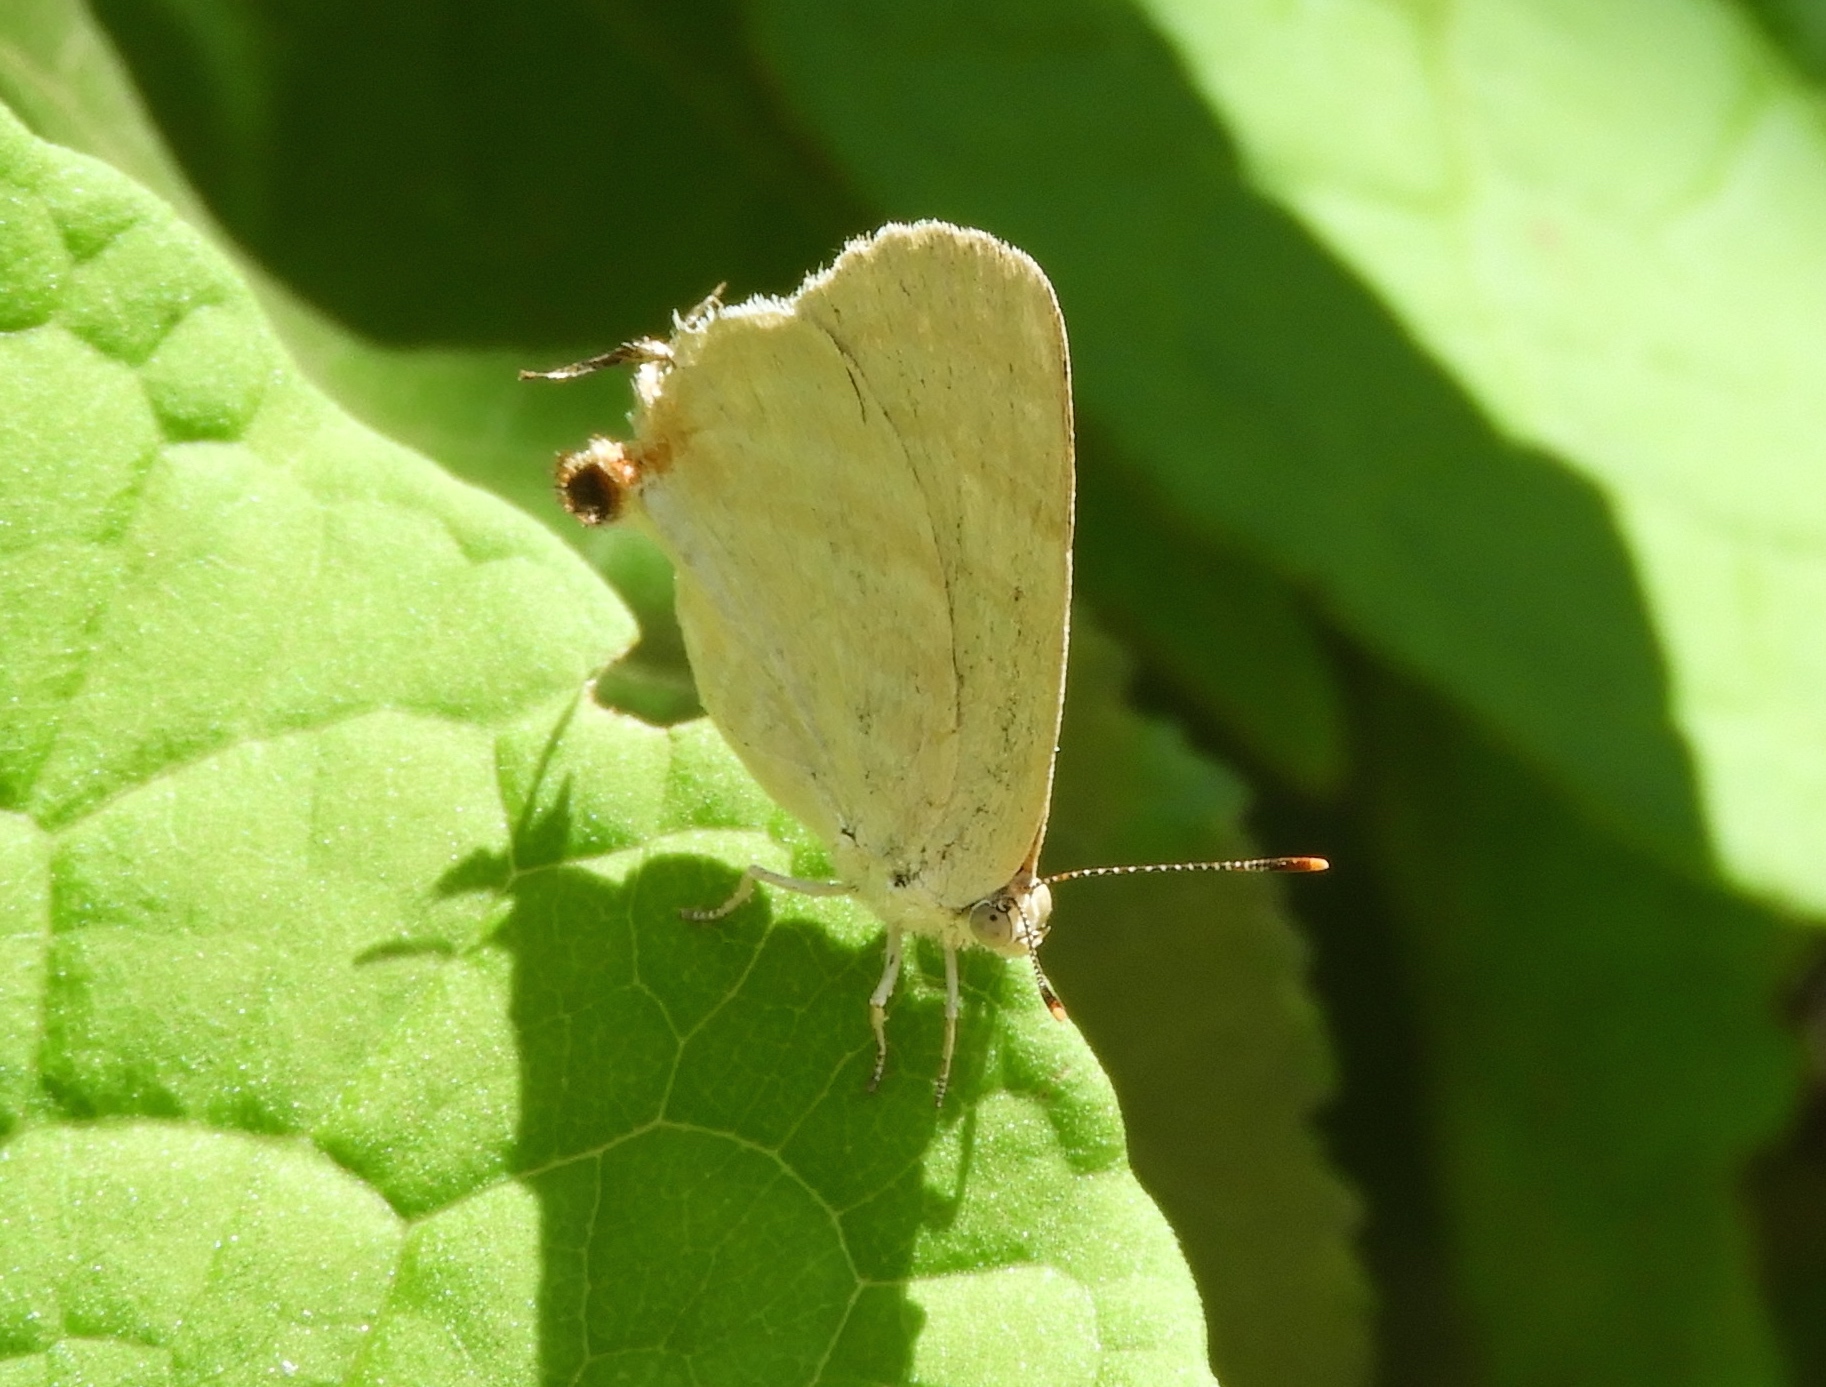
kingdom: Animalia
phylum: Arthropoda
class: Insecta
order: Lepidoptera
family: Lycaenidae
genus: Dolymorpha
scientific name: Dolymorpha jada
